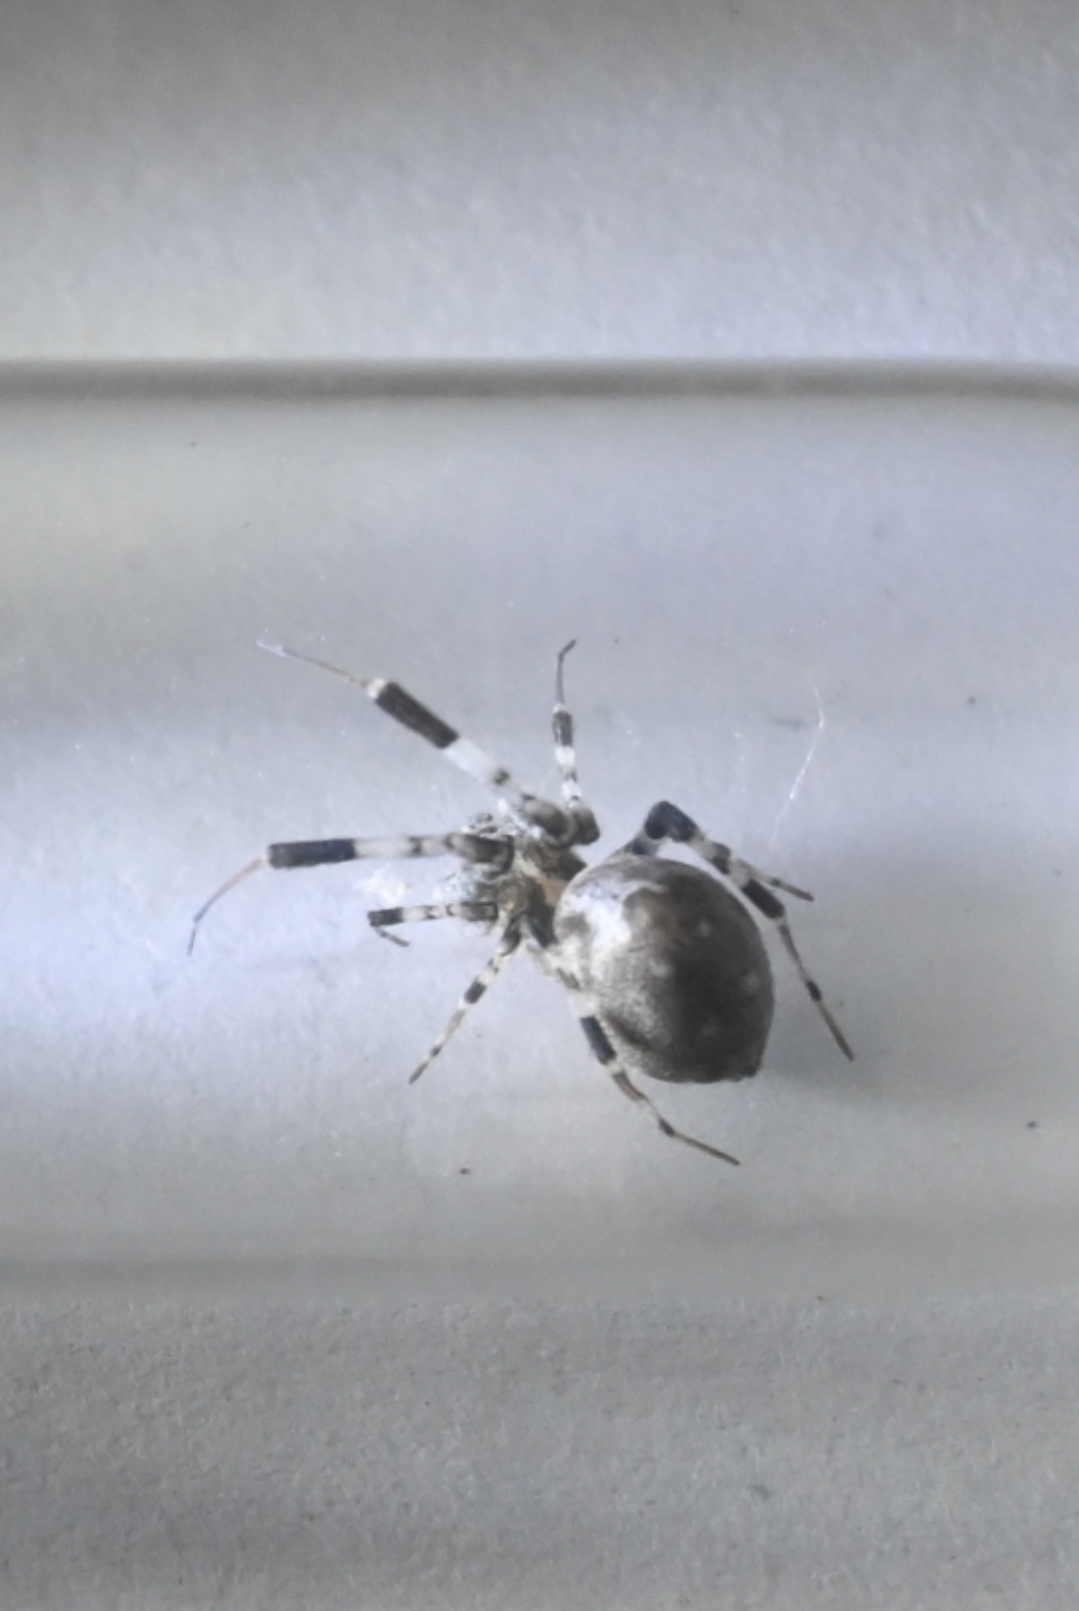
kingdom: Animalia
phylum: Arthropoda
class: Arachnida
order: Araneae
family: Uloboridae
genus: Zosis
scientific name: Zosis geniculata
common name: Hackled orb weavers
